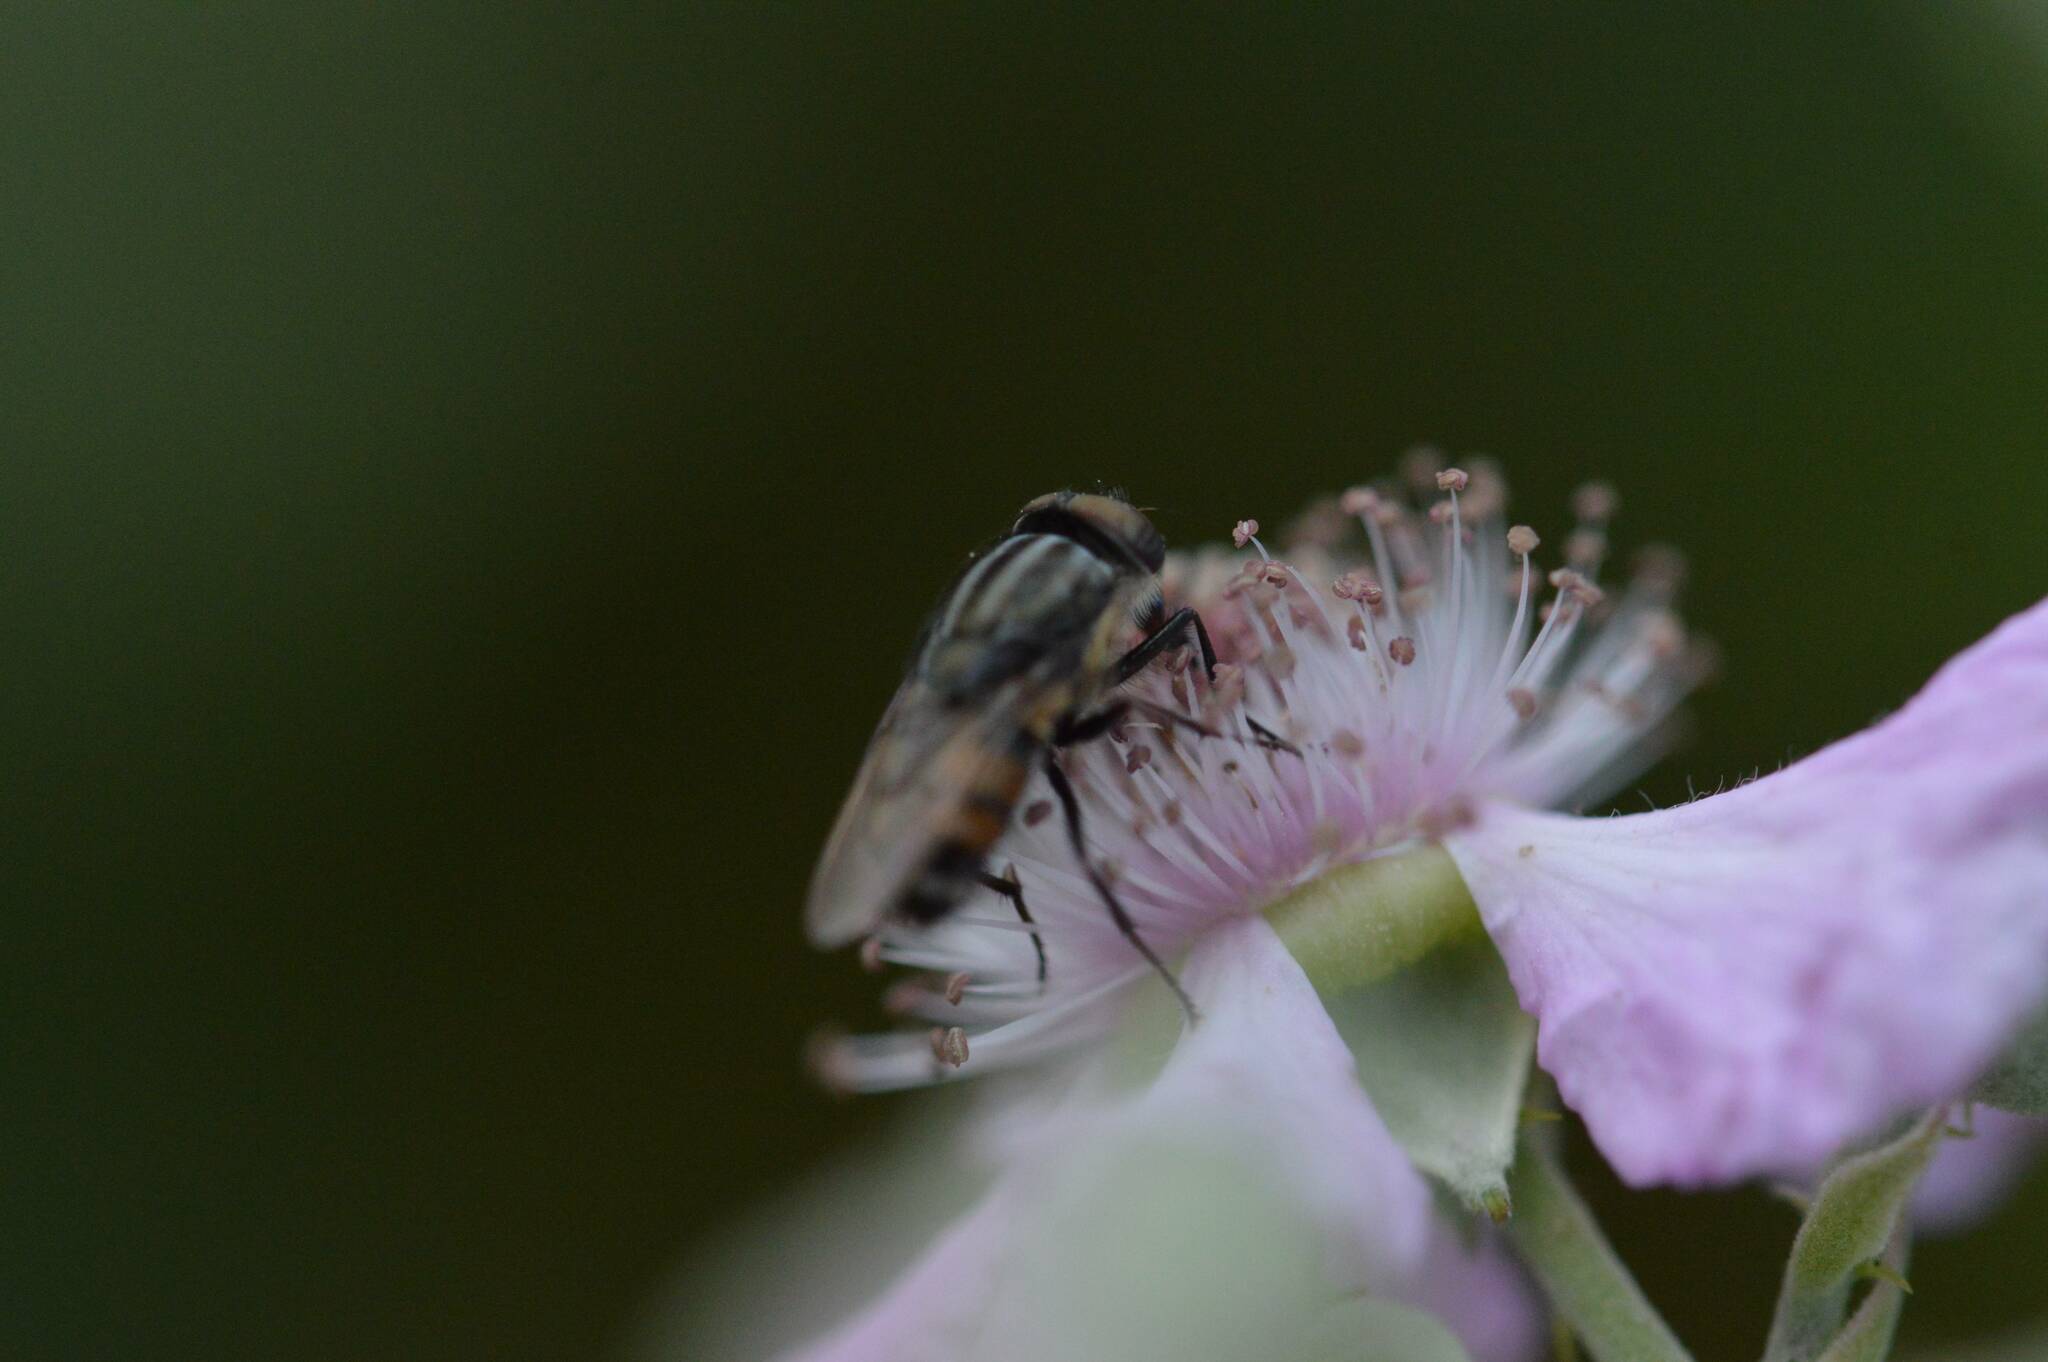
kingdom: Animalia
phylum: Arthropoda
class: Insecta
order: Diptera
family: Calliphoridae
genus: Stomorhina
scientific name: Stomorhina lunata
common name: Locust blowfly
